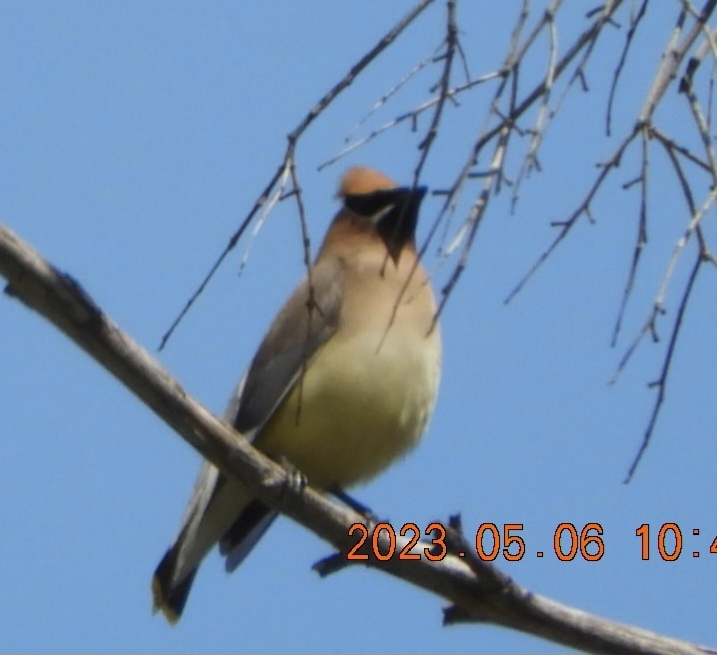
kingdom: Animalia
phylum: Chordata
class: Aves
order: Passeriformes
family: Bombycillidae
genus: Bombycilla
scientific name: Bombycilla cedrorum
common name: Cedar waxwing
